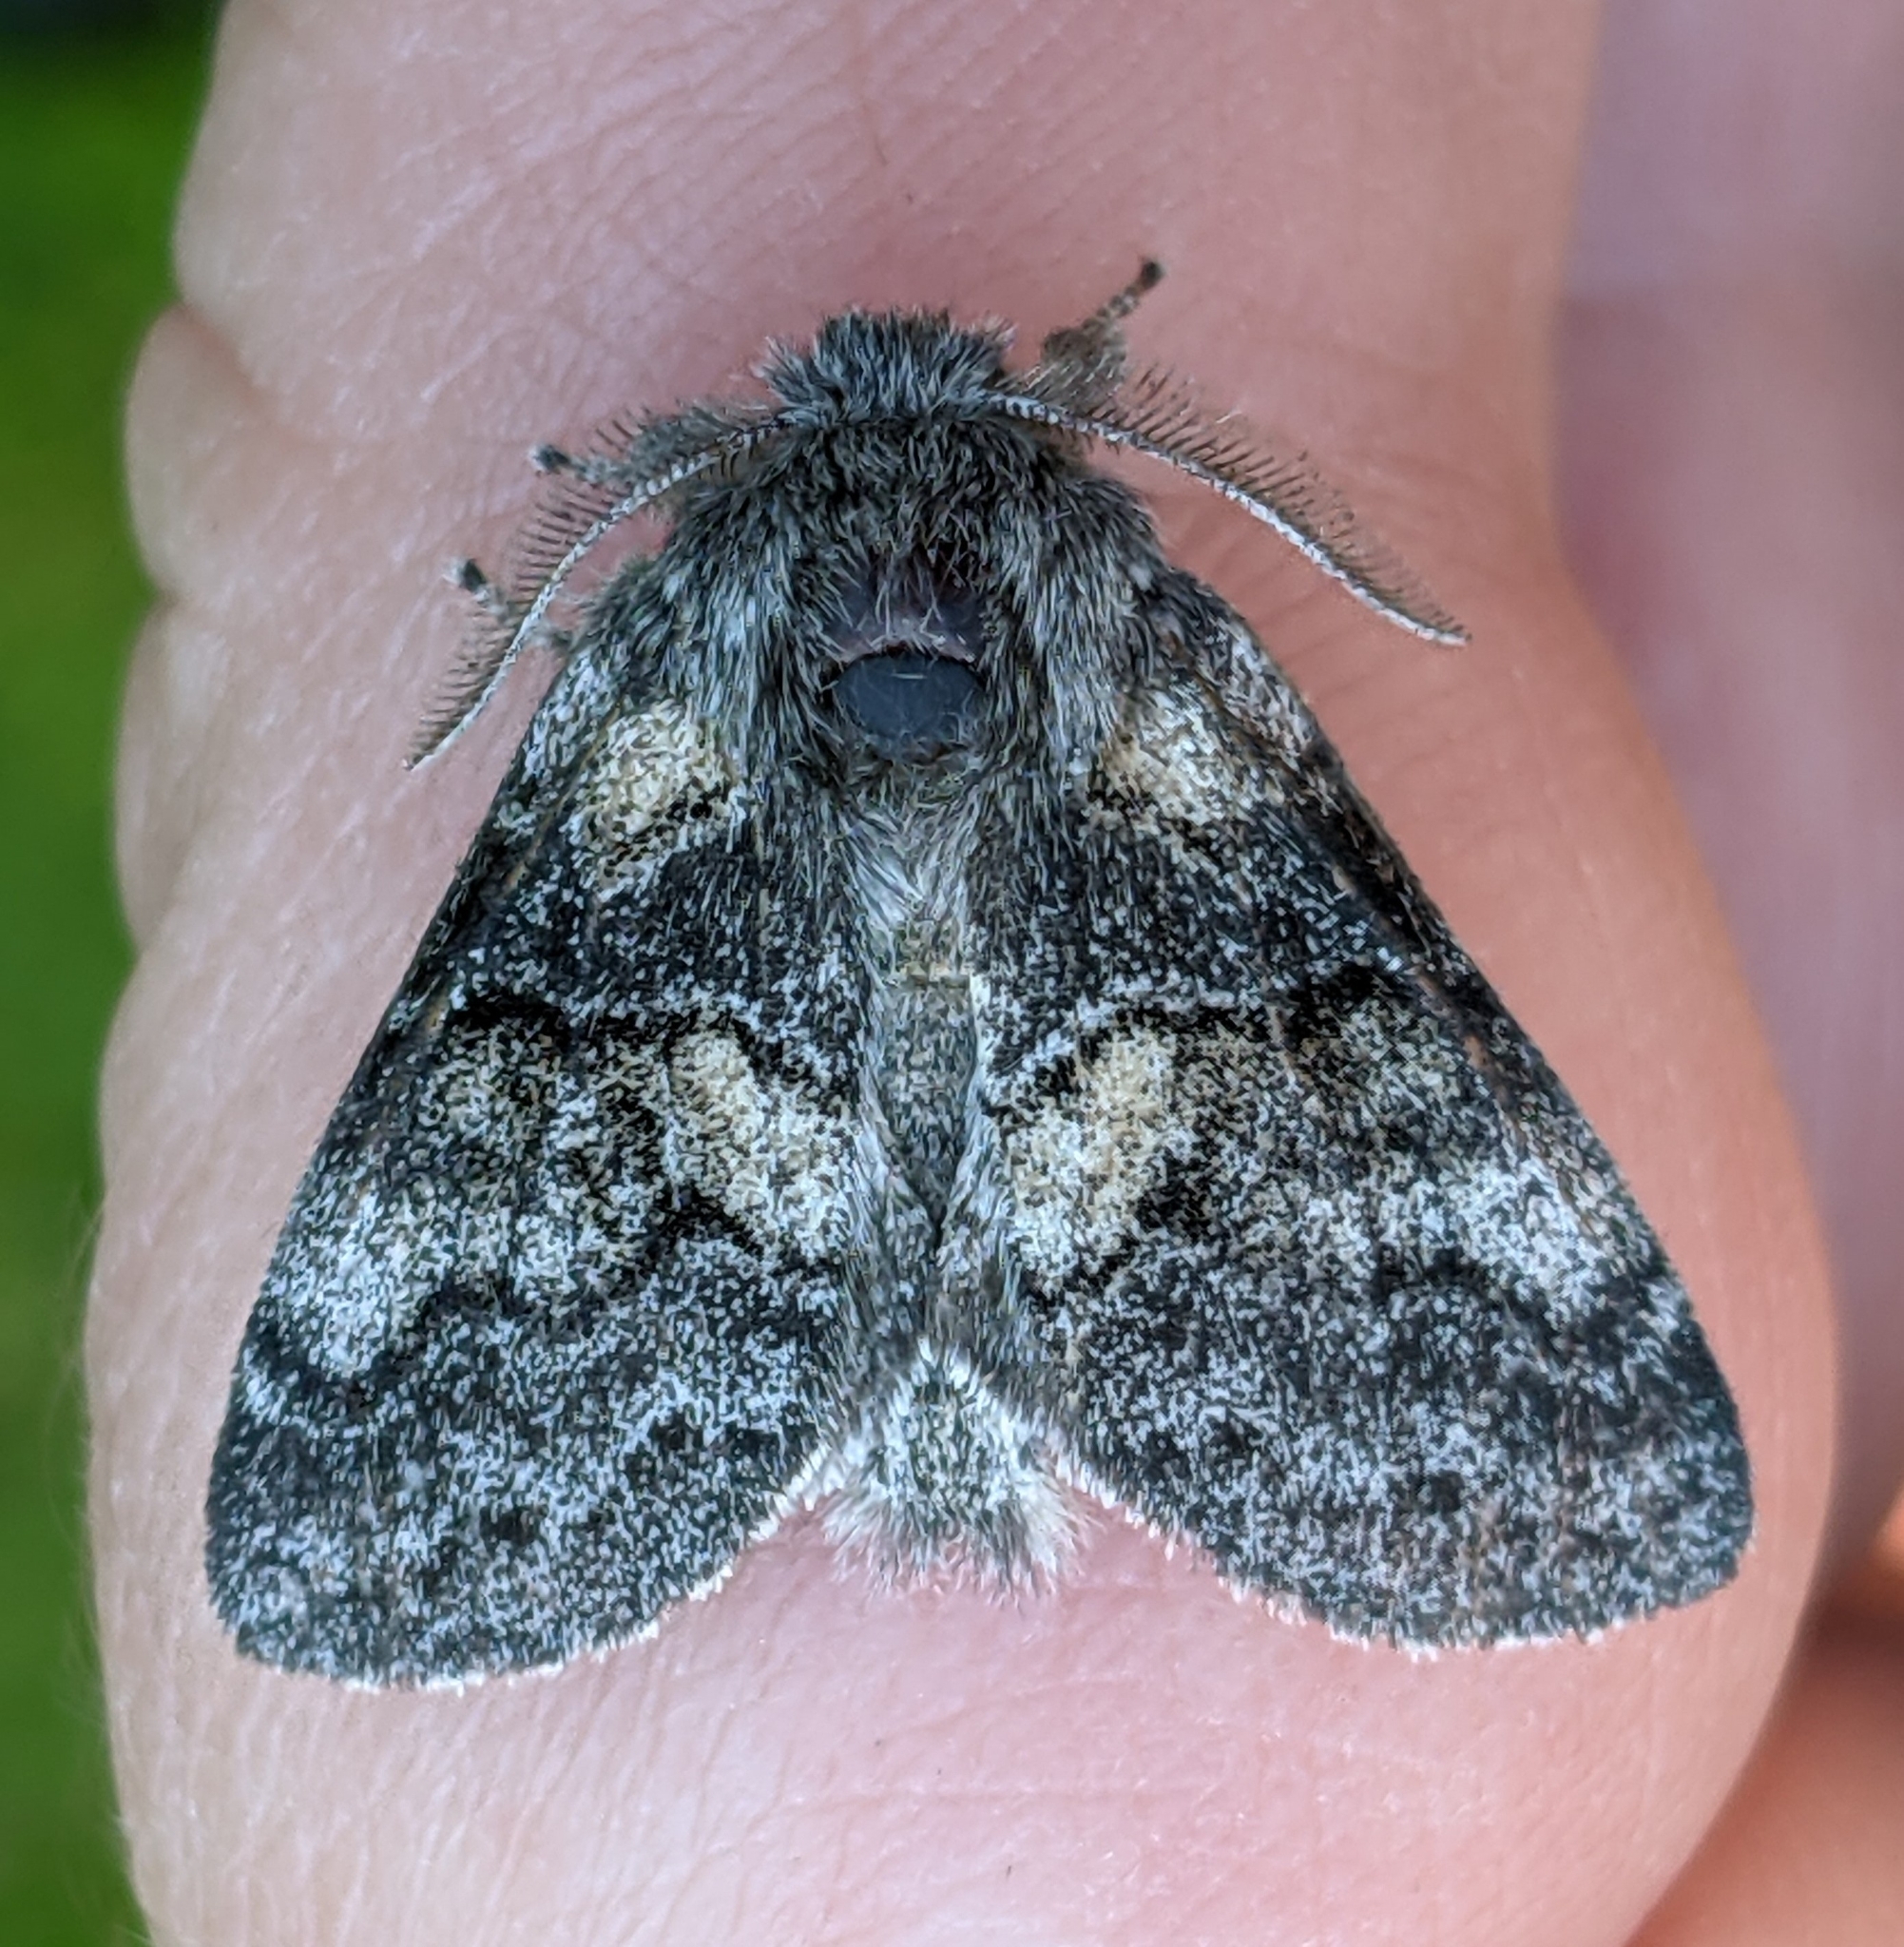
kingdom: Animalia
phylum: Arthropoda
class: Insecta
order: Lepidoptera
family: Notodontidae
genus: Gluphisia
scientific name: Gluphisia septentrionis
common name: Common gluphisia
